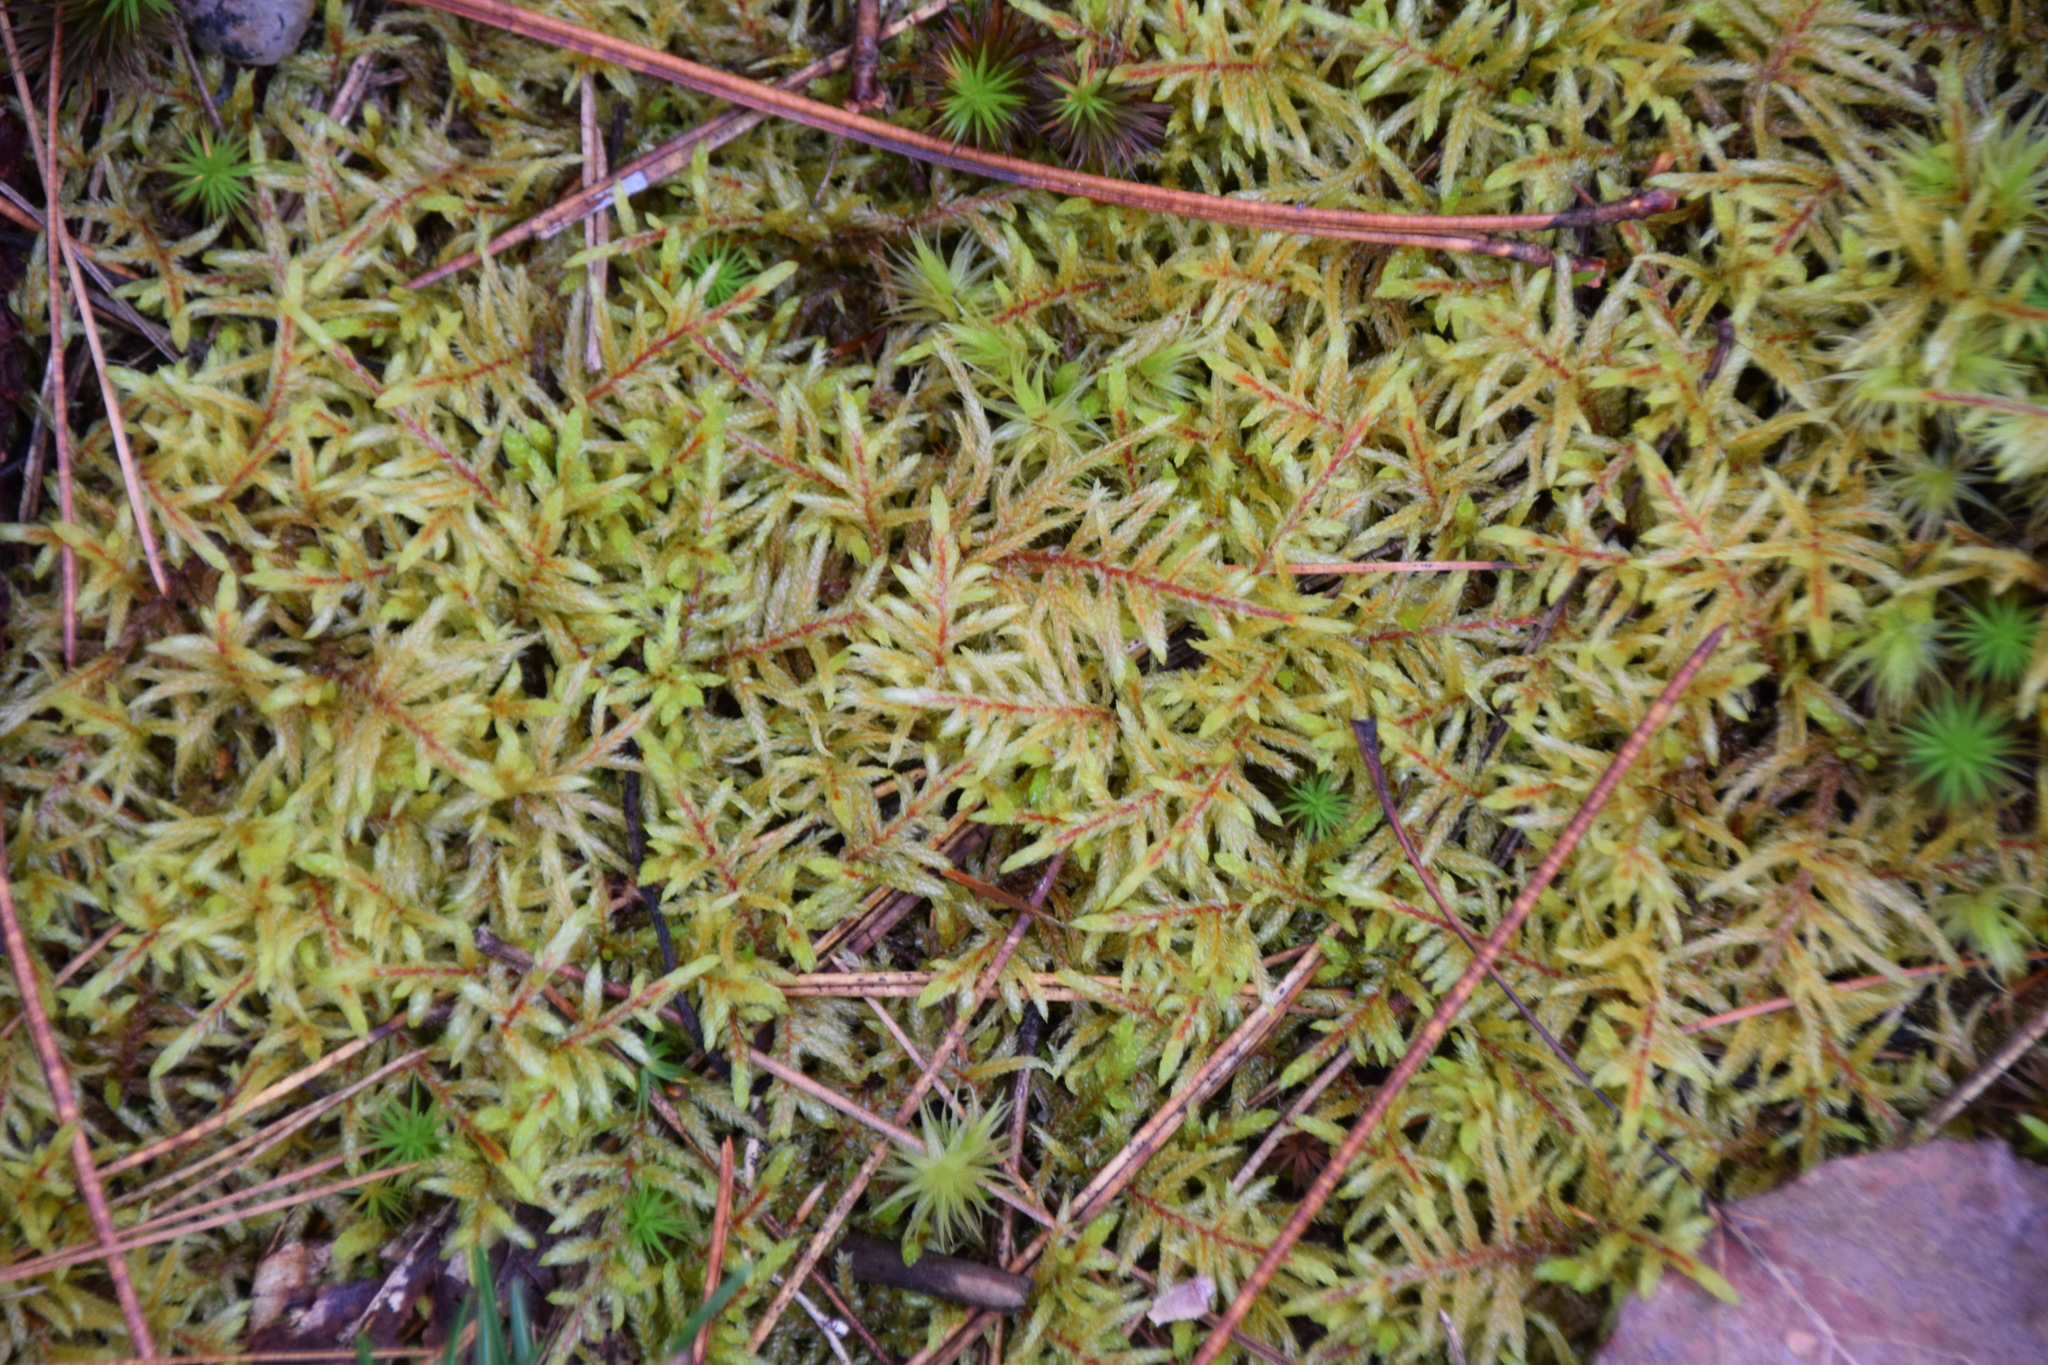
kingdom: Plantae
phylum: Bryophyta
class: Bryopsida
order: Hypnales
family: Hylocomiaceae
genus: Pleurozium
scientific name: Pleurozium schreberi
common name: Red-stemmed feather moss
